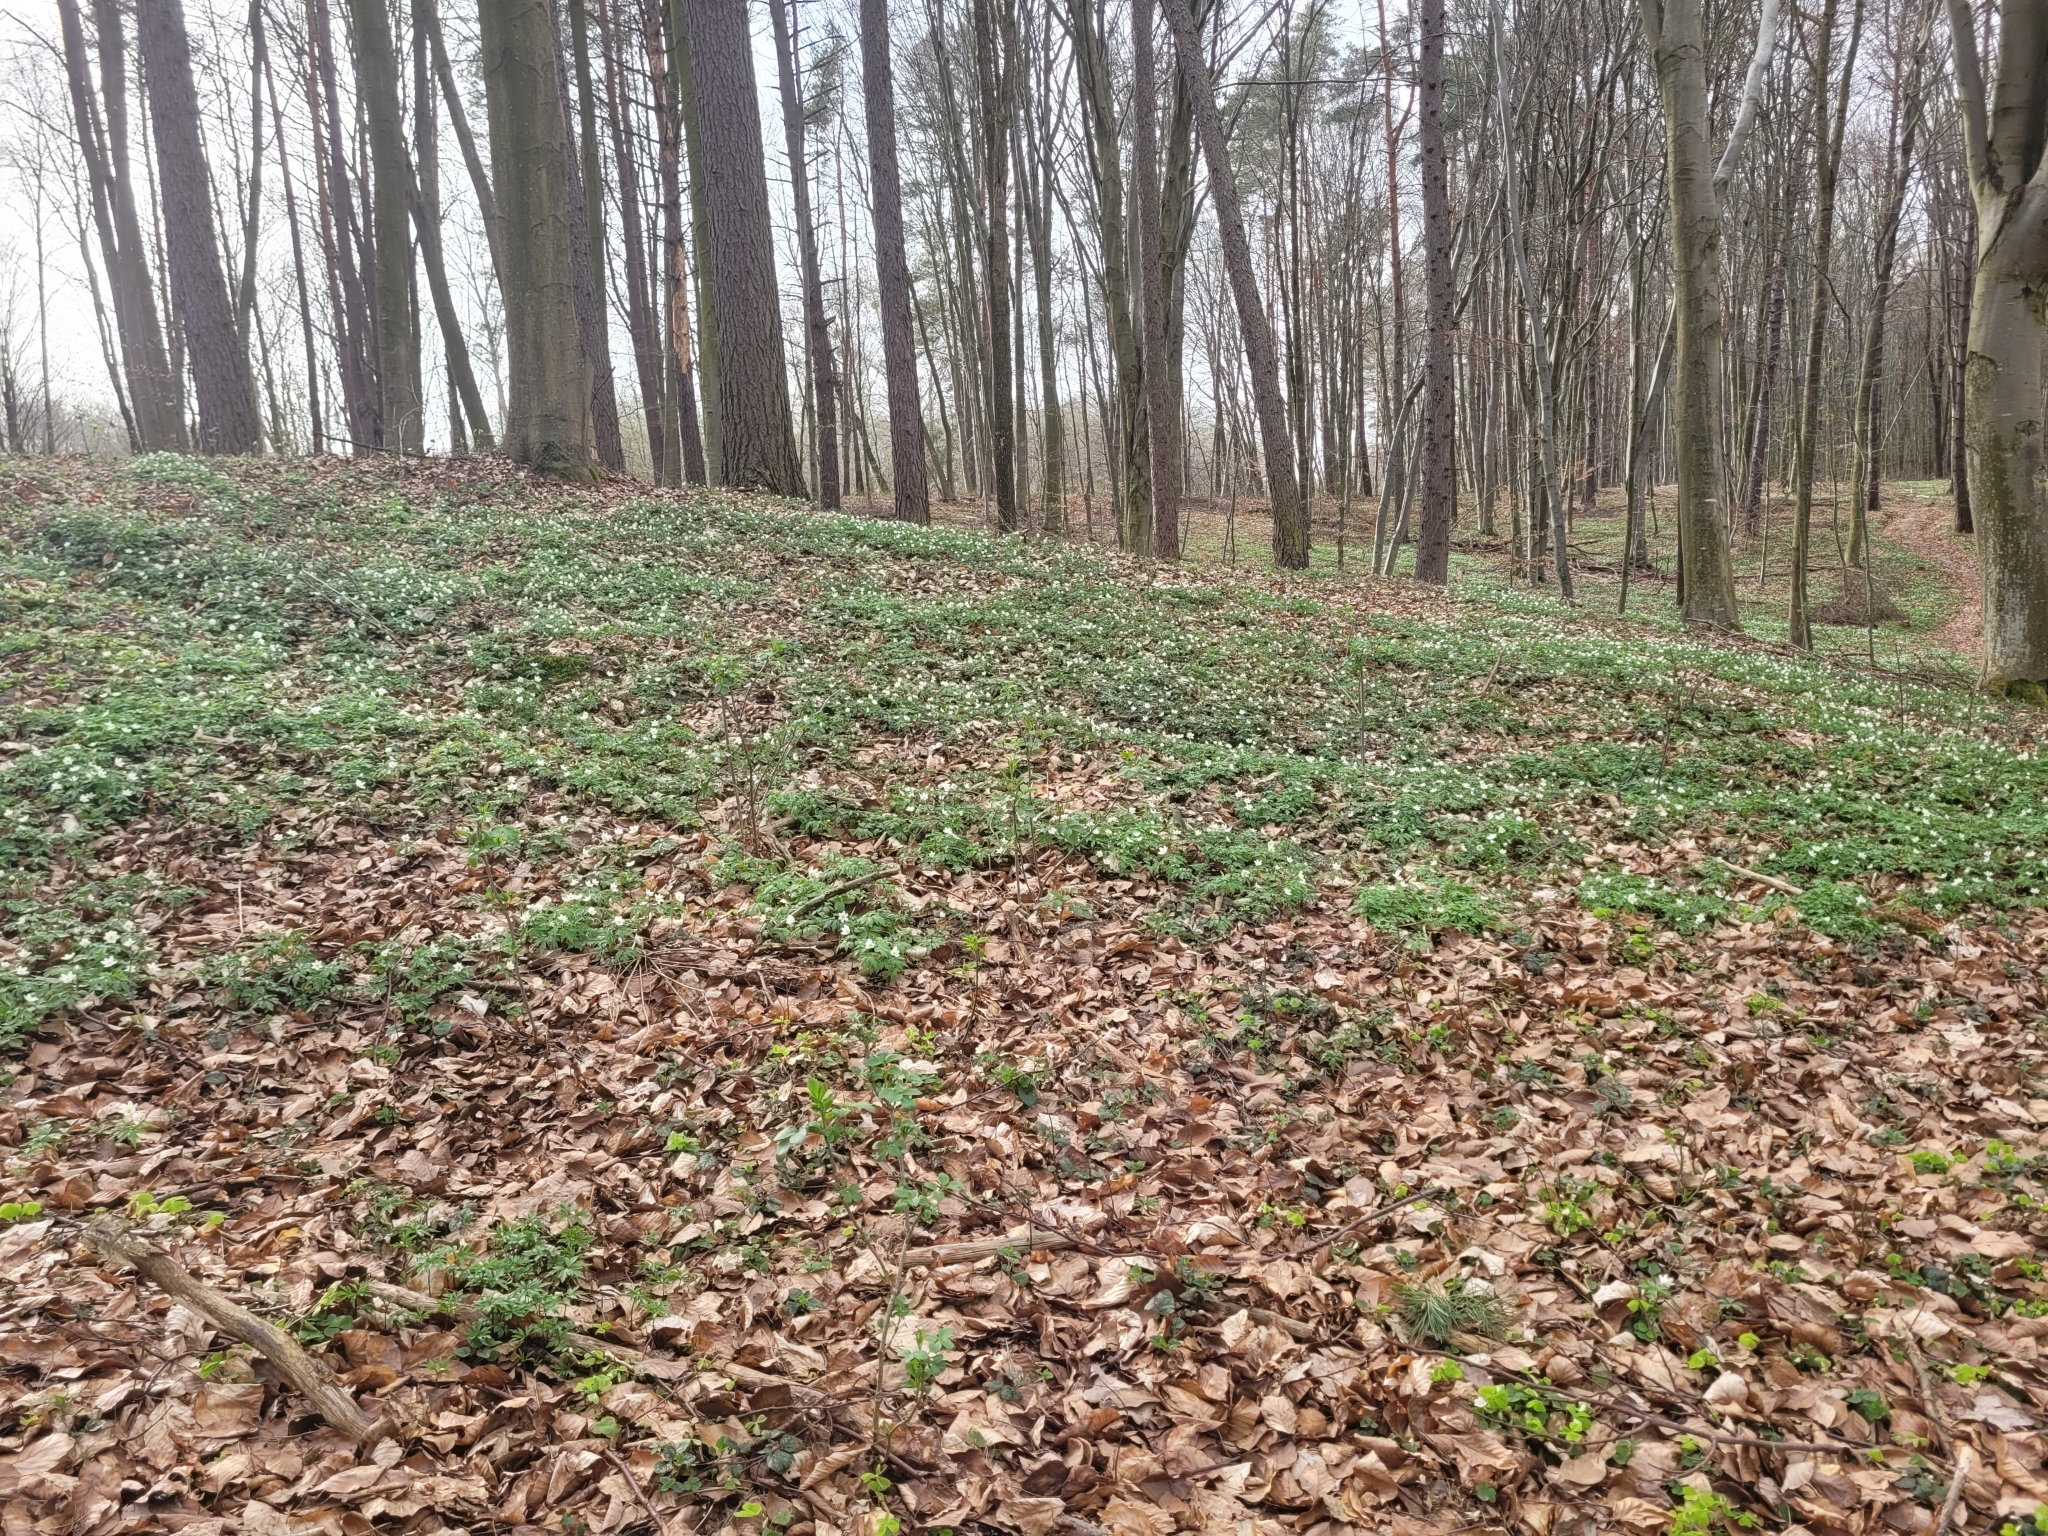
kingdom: Plantae
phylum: Tracheophyta
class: Magnoliopsida
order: Ranunculales
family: Ranunculaceae
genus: Anemone
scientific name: Anemone nemorosa
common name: Wood anemone
